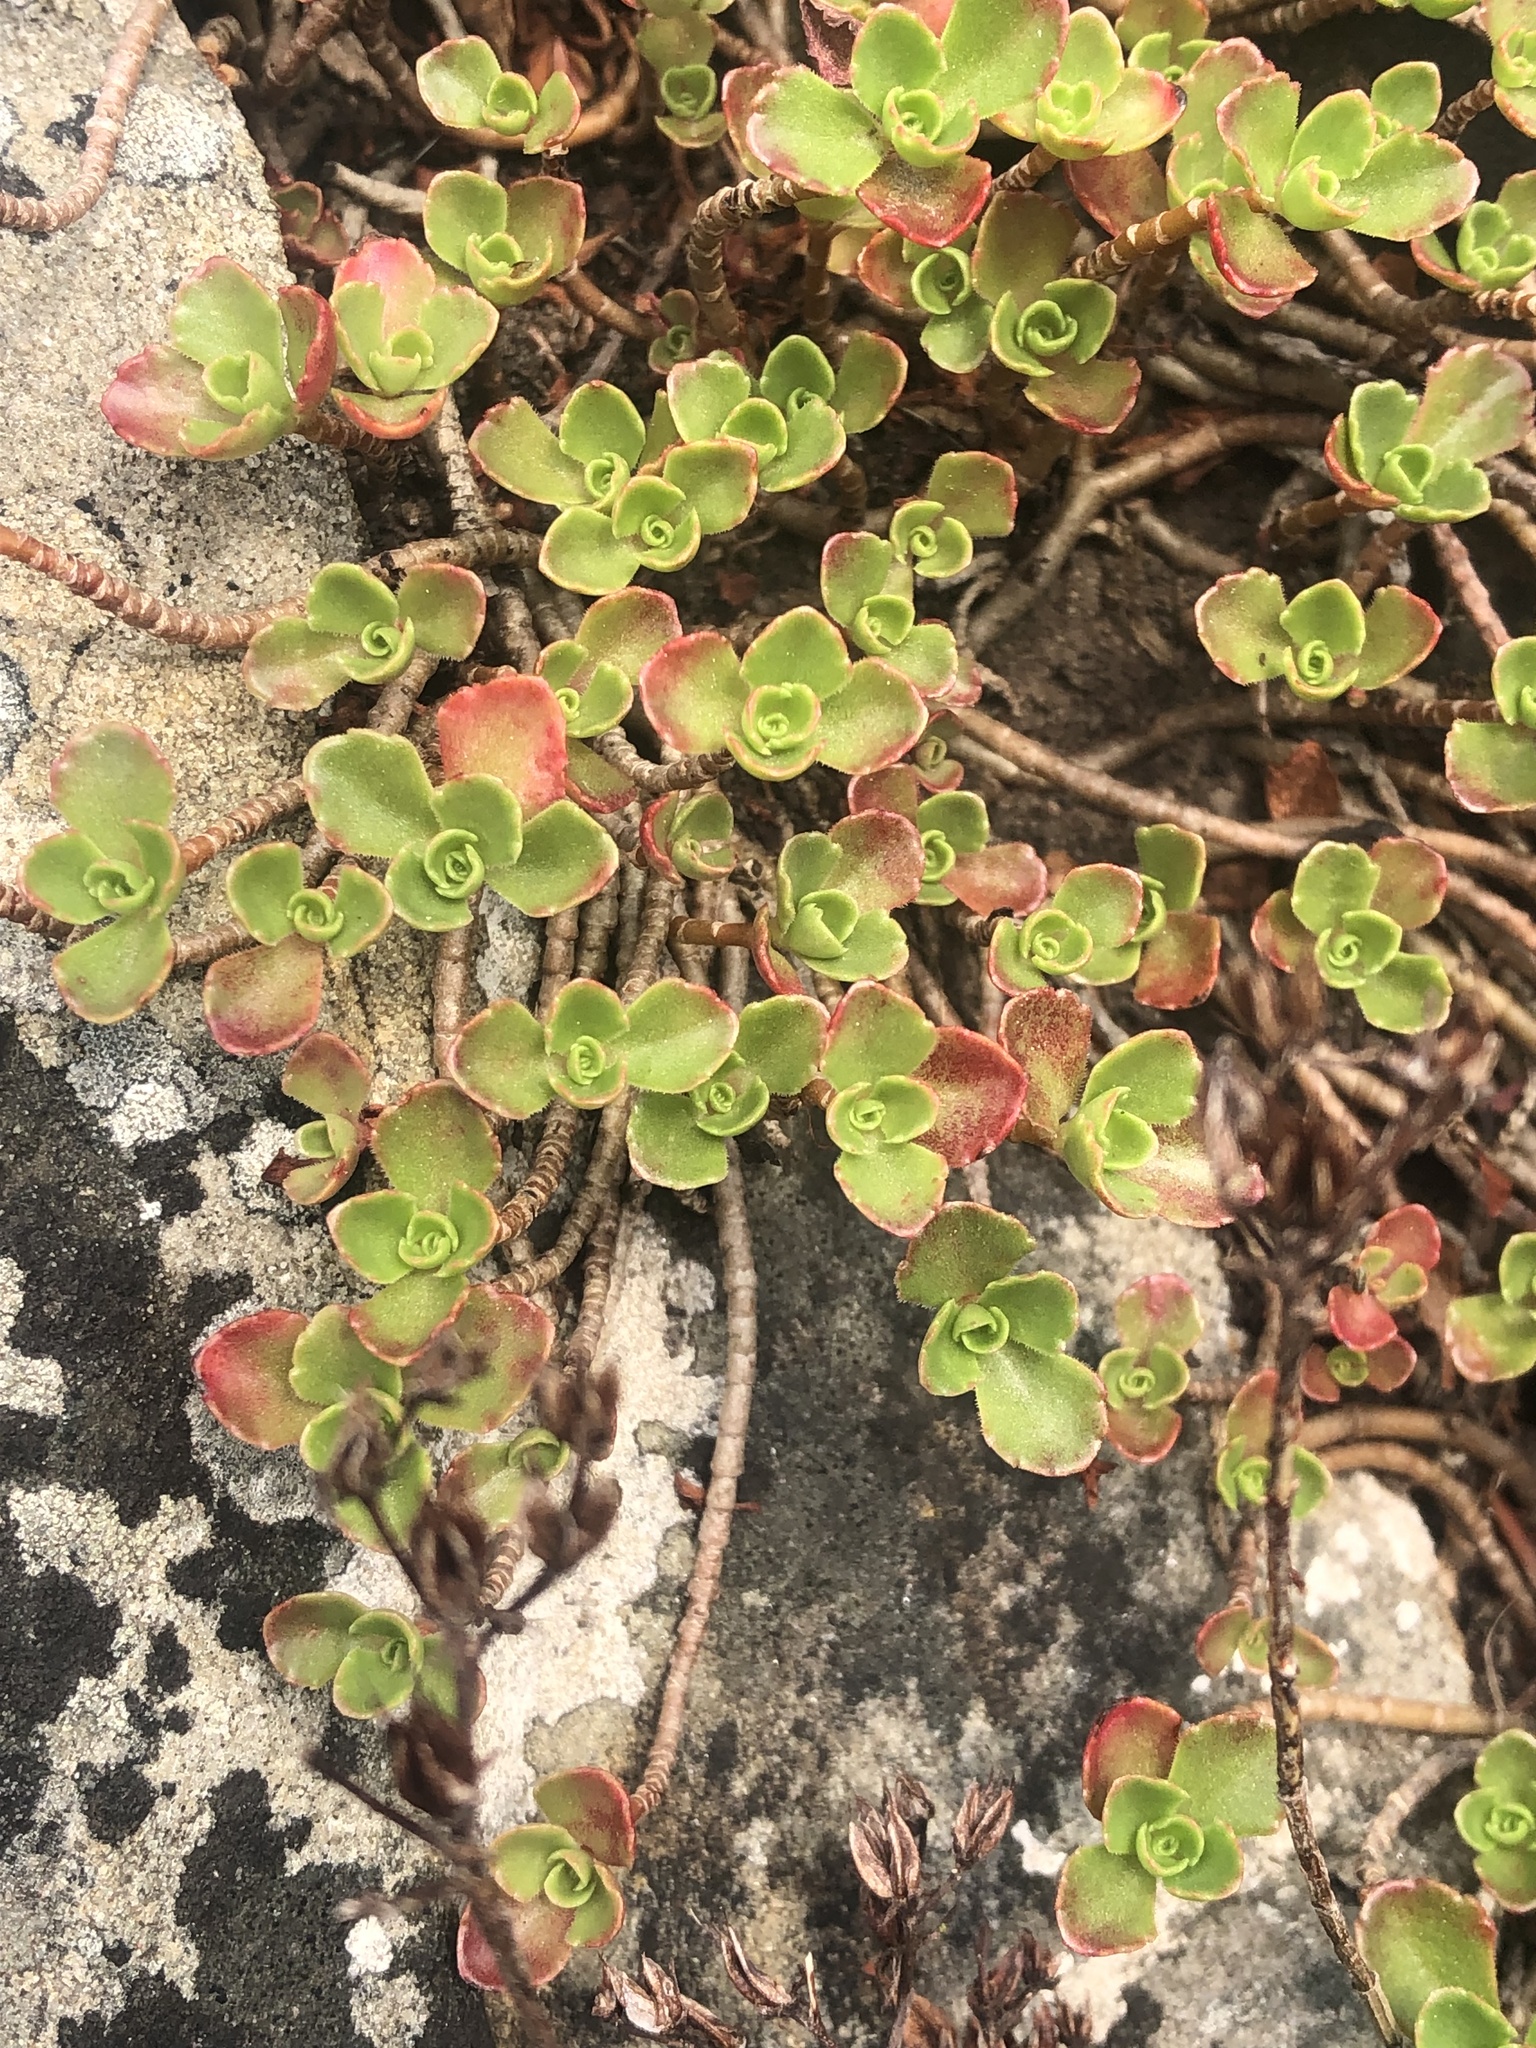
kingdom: Plantae
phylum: Tracheophyta
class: Magnoliopsida
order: Saxifragales
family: Crassulaceae
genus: Phedimus
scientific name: Phedimus spurius
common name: Caucasian stonecrop
